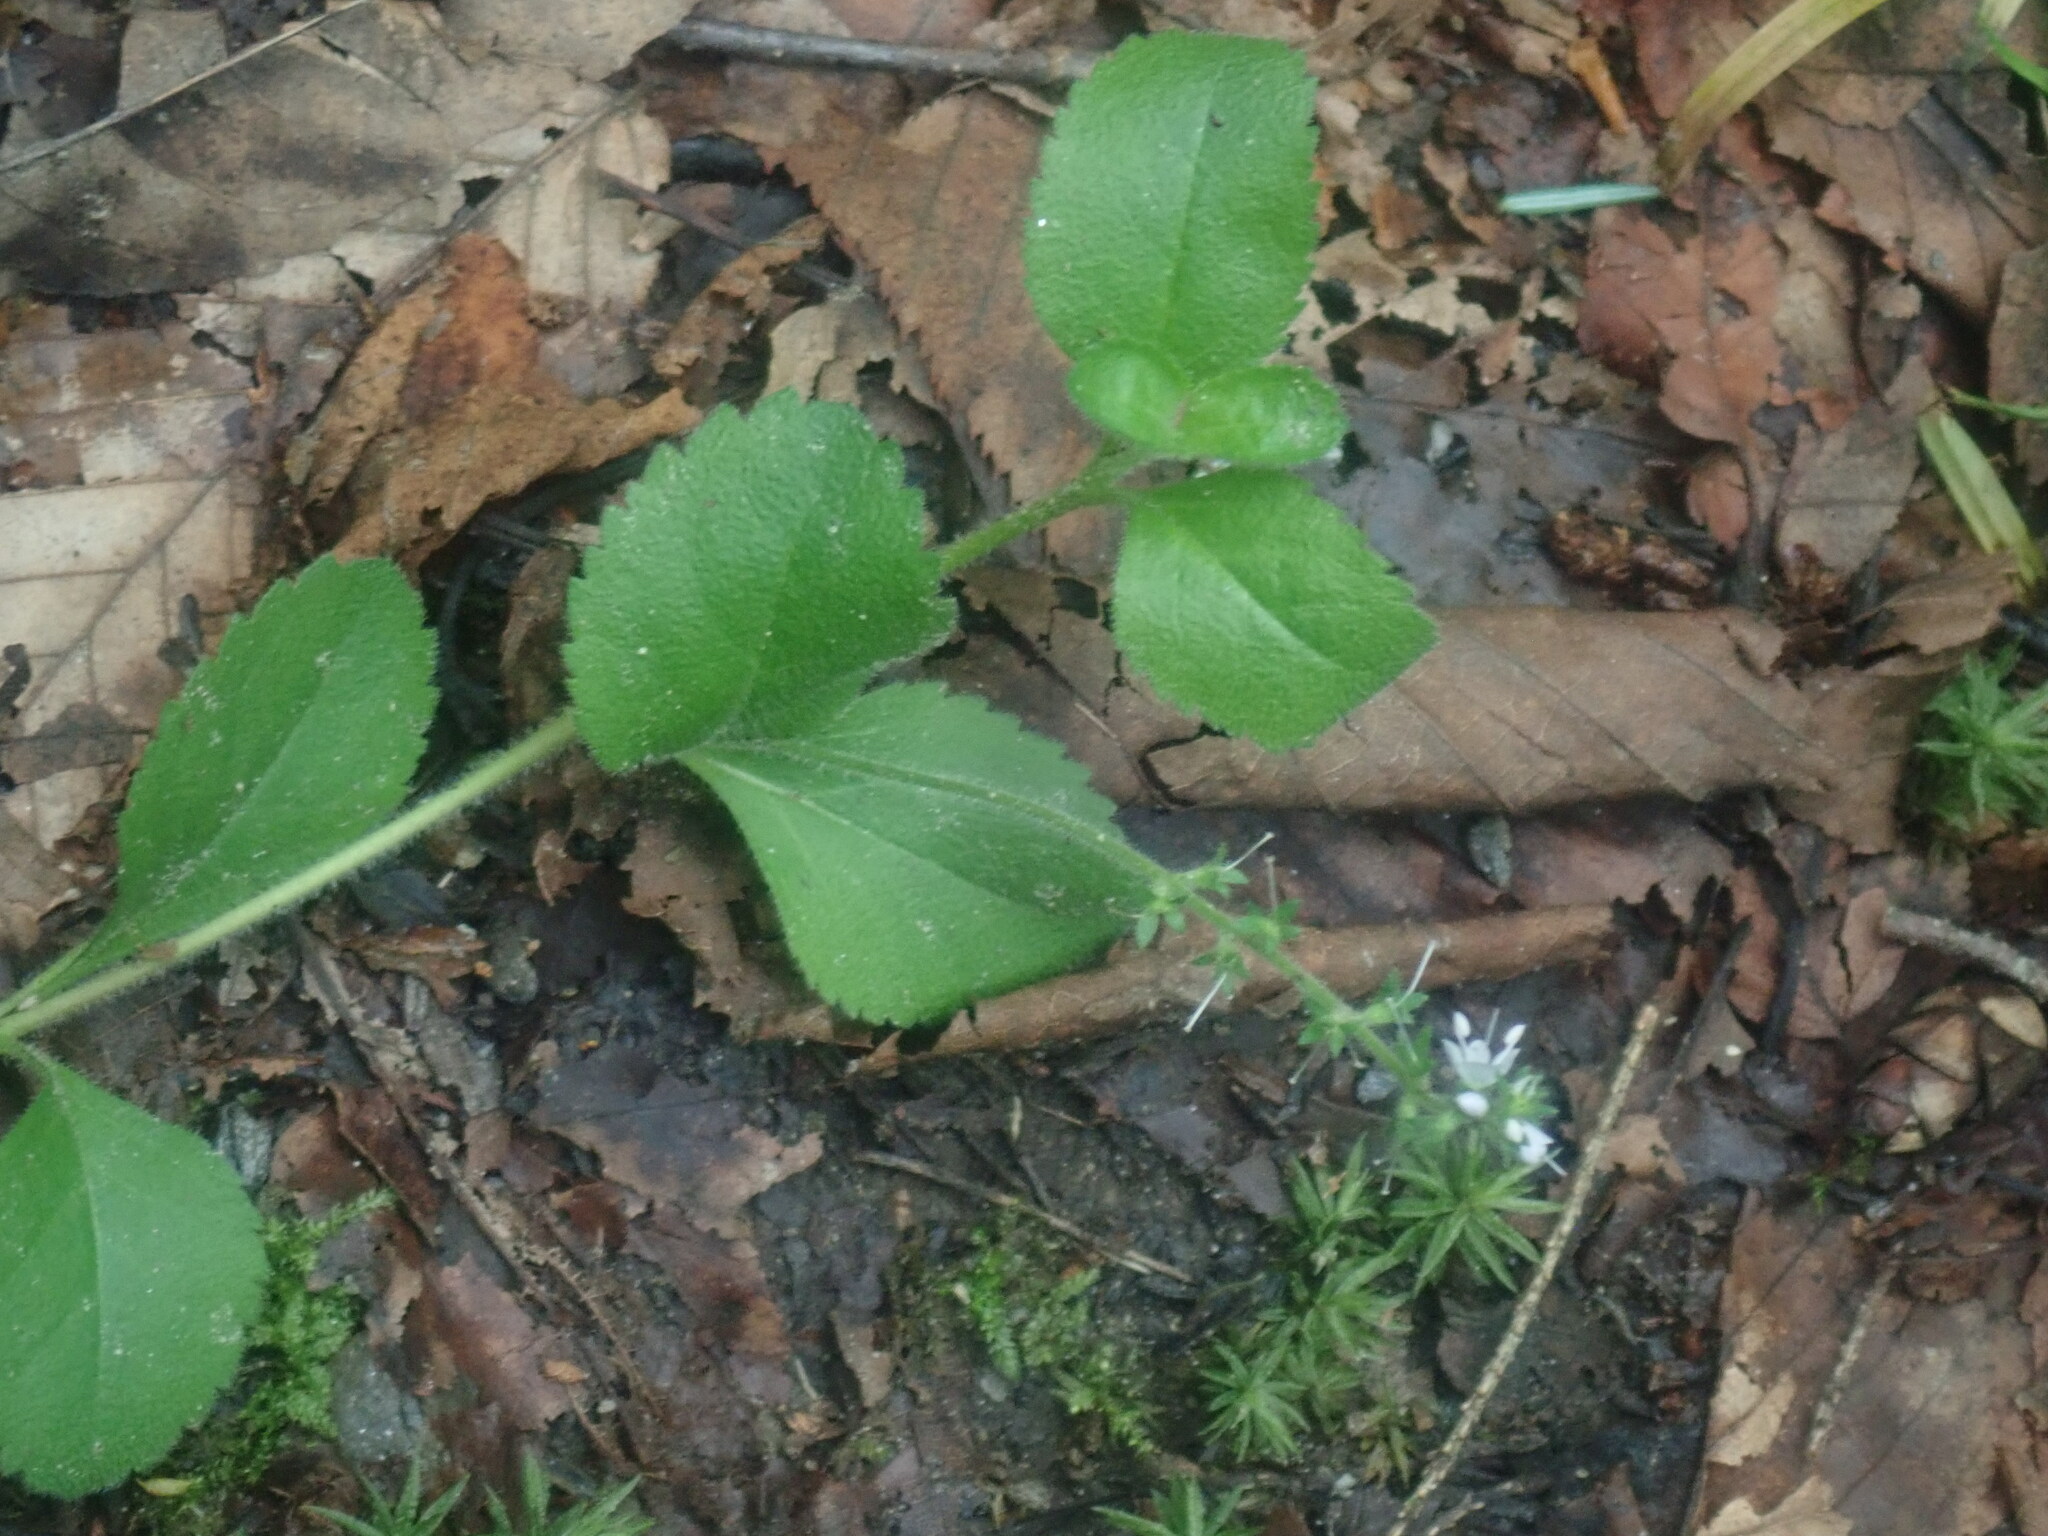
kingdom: Plantae
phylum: Tracheophyta
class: Magnoliopsida
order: Lamiales
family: Plantaginaceae
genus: Veronica
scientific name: Veronica officinalis
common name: Common speedwell
